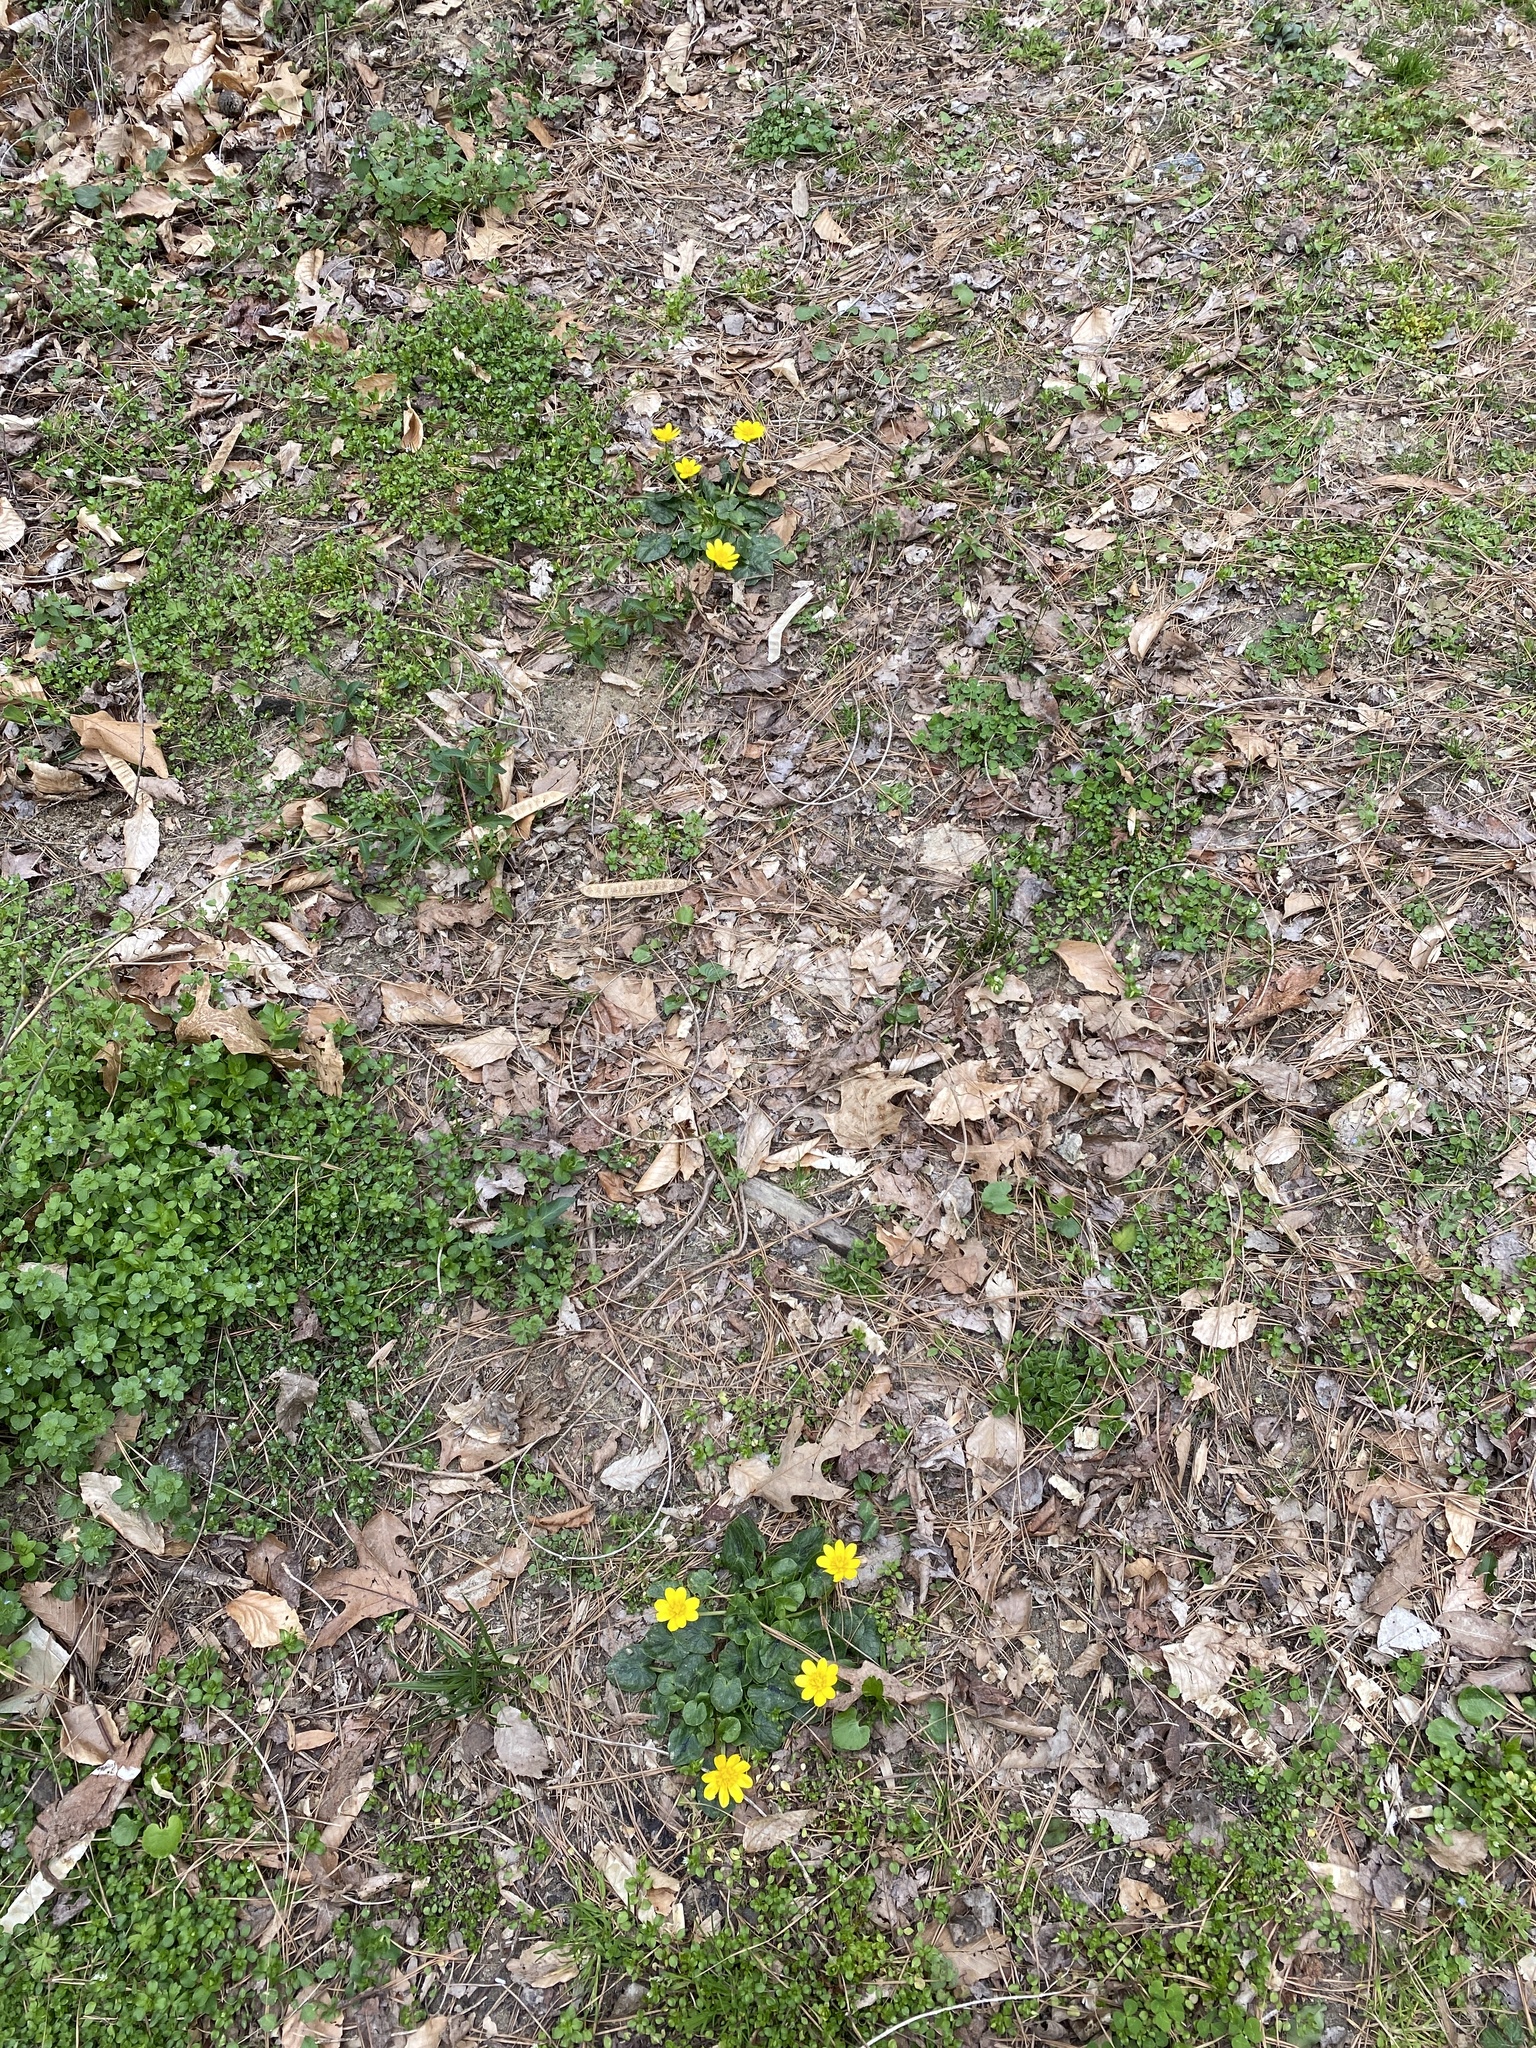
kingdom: Plantae
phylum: Tracheophyta
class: Magnoliopsida
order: Ranunculales
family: Ranunculaceae
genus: Ficaria
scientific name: Ficaria verna
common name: Lesser celandine
